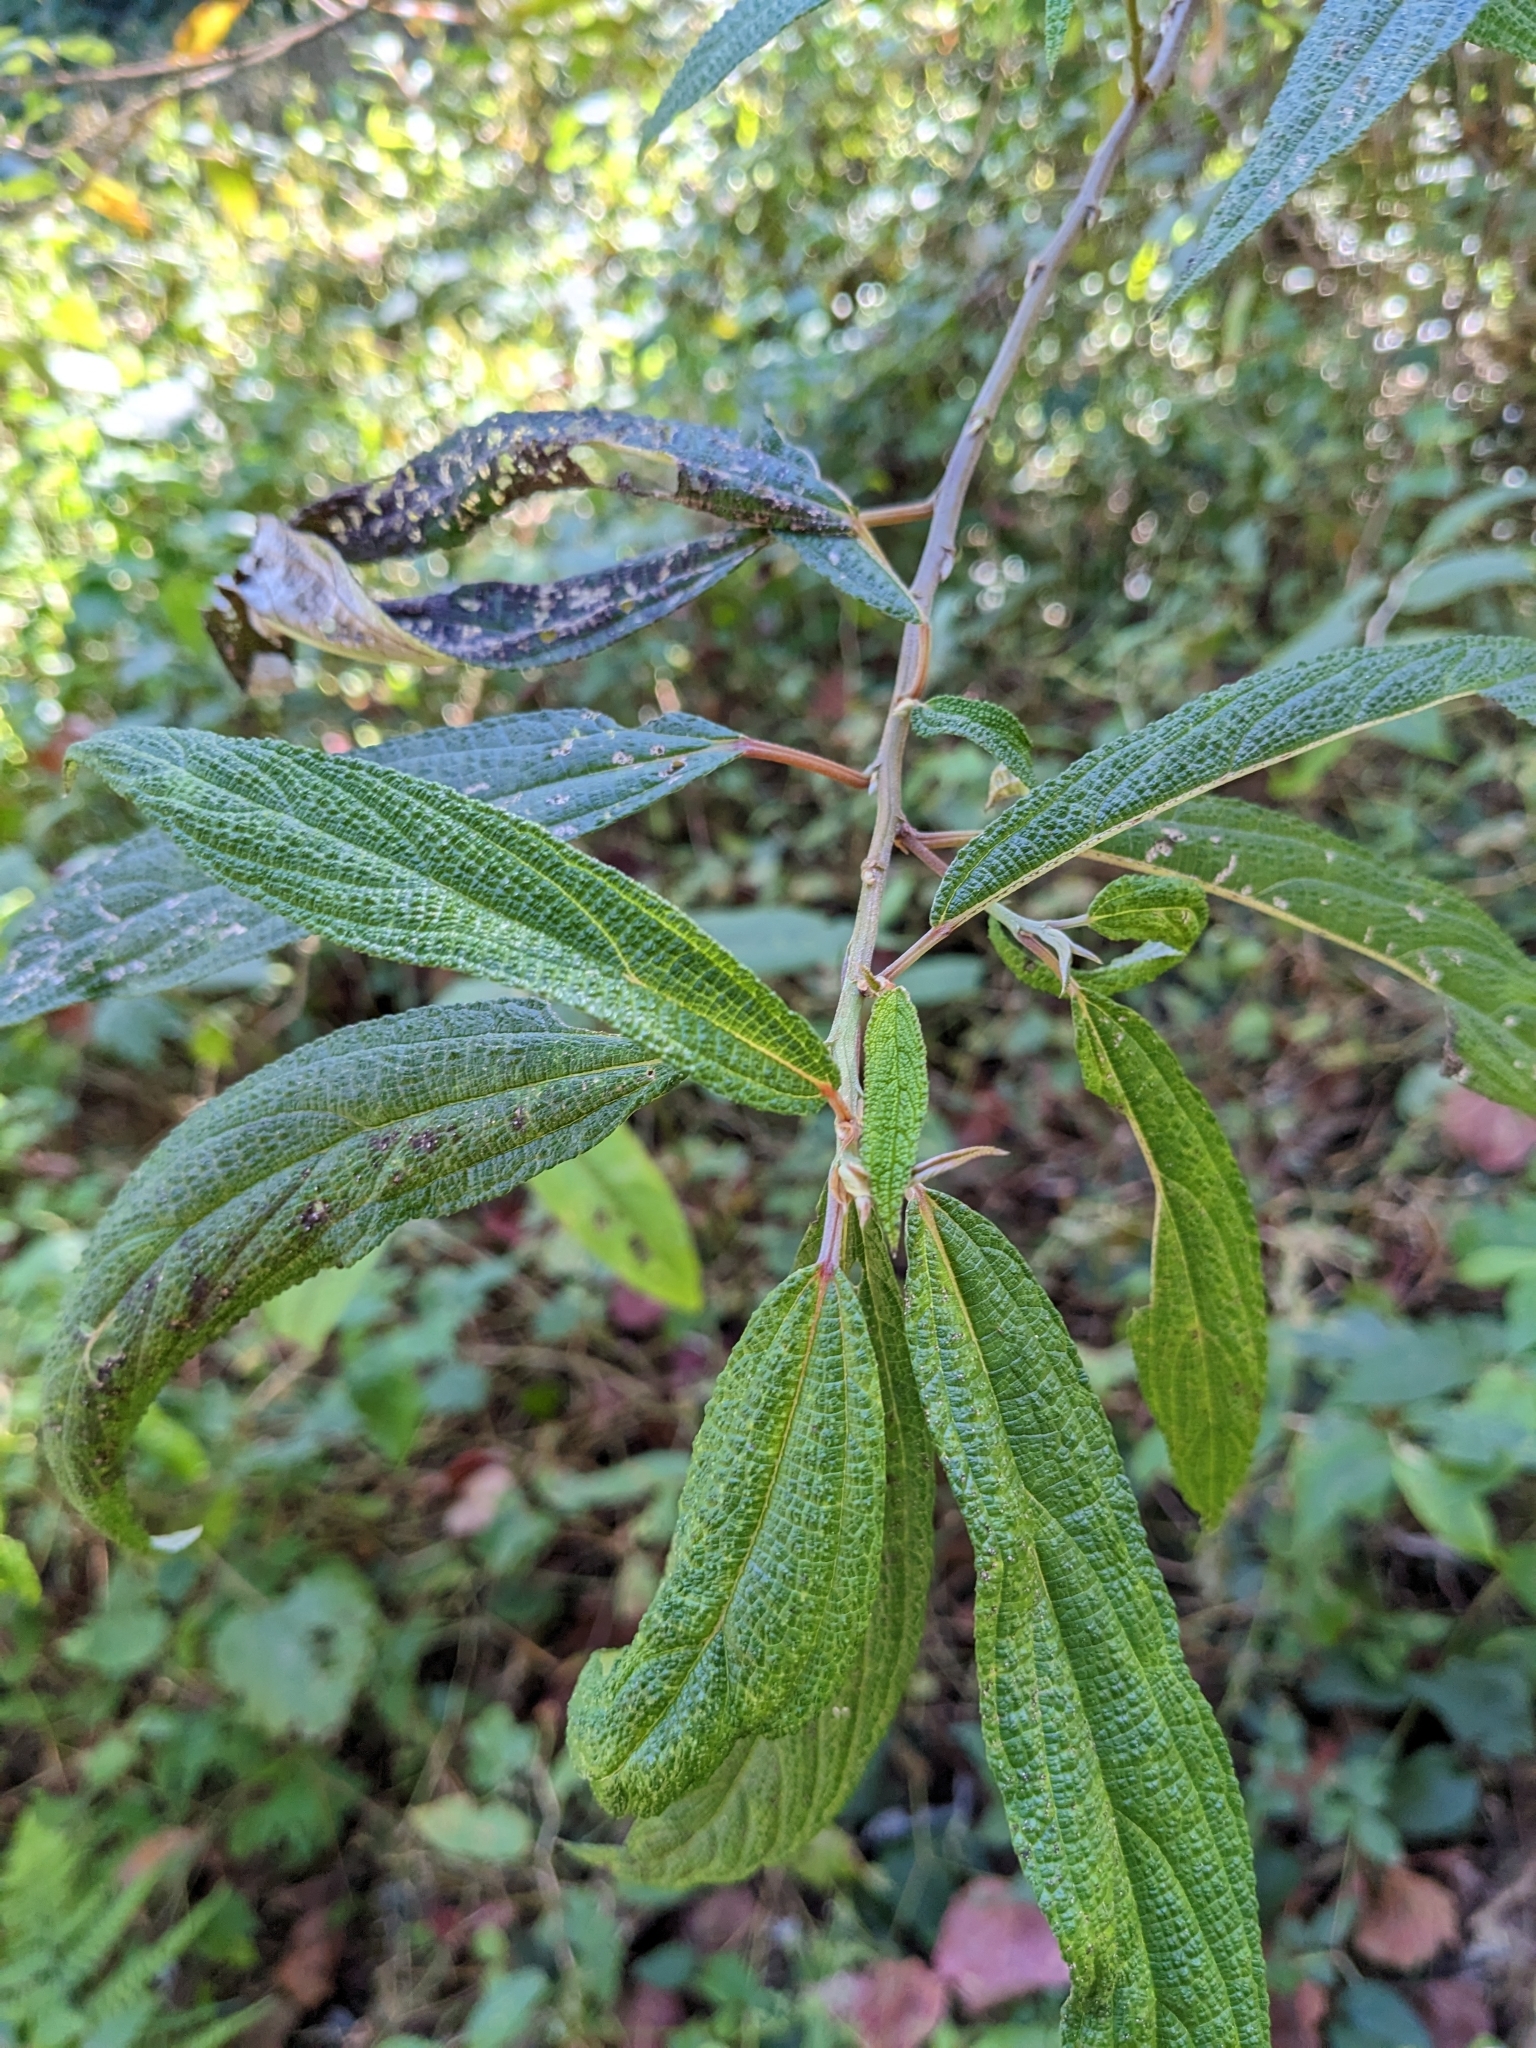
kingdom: Plantae
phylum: Tracheophyta
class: Magnoliopsida
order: Rosales
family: Urticaceae
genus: Debregeasia
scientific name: Debregeasia orientalis
